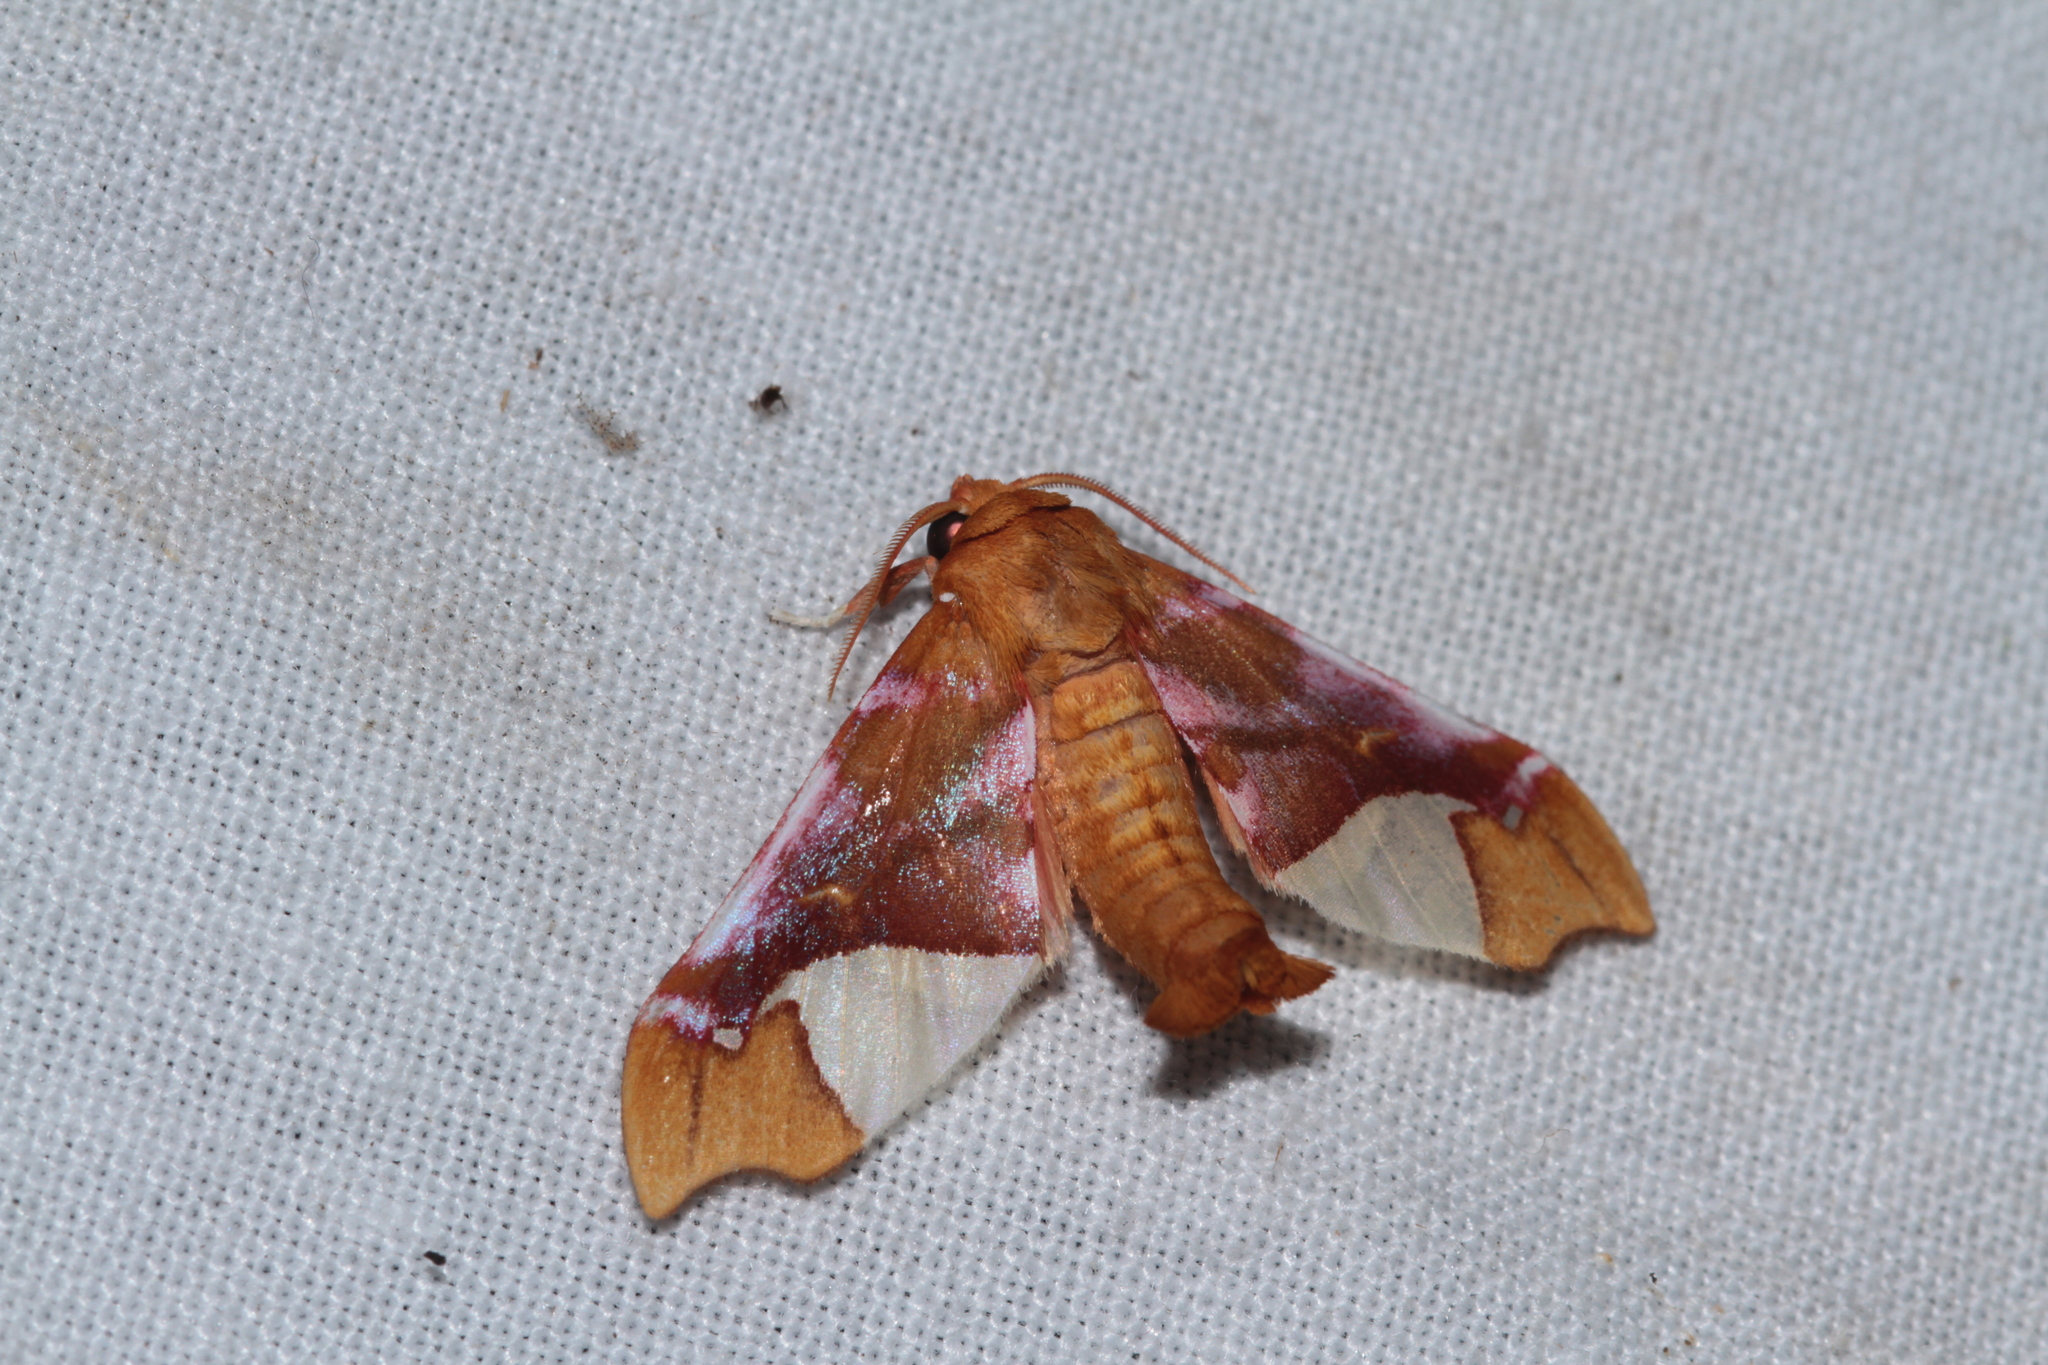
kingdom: Animalia
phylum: Arthropoda
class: Insecta
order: Lepidoptera
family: Erebidae
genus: Zaevius
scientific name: Zaevius calocore
